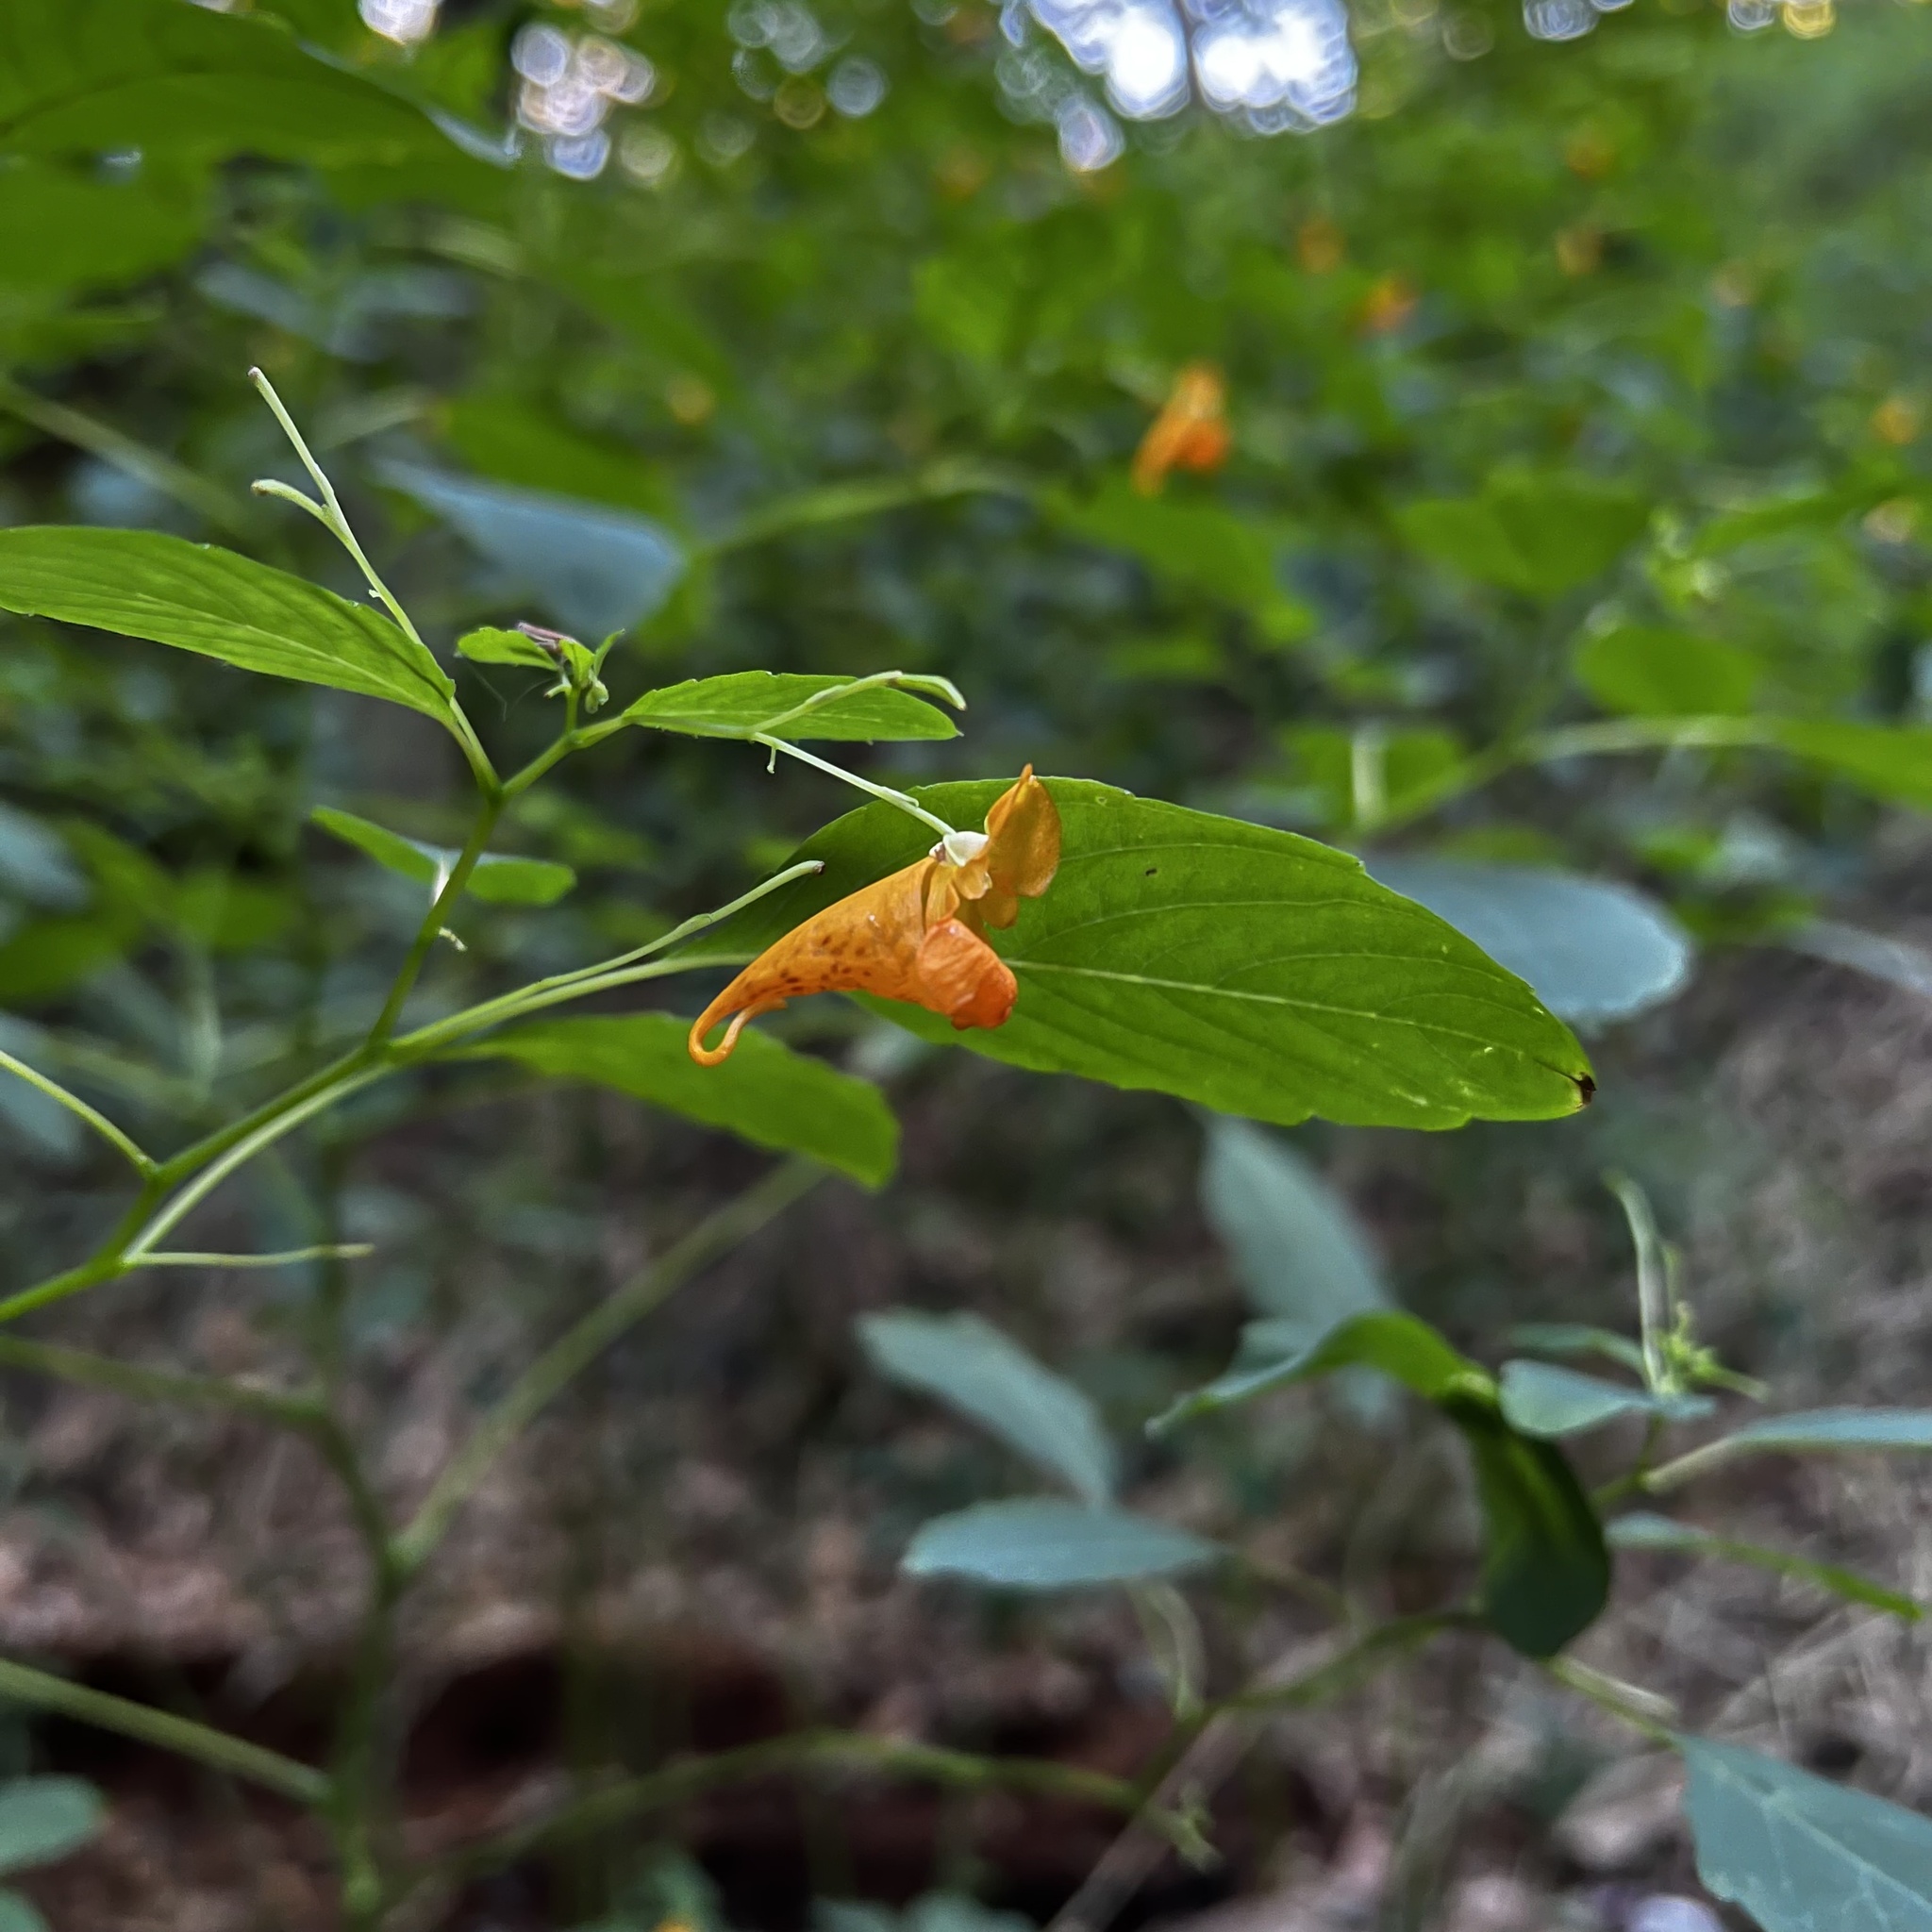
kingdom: Plantae
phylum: Tracheophyta
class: Magnoliopsida
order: Ericales
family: Balsaminaceae
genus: Impatiens
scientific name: Impatiens capensis
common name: Orange balsam
